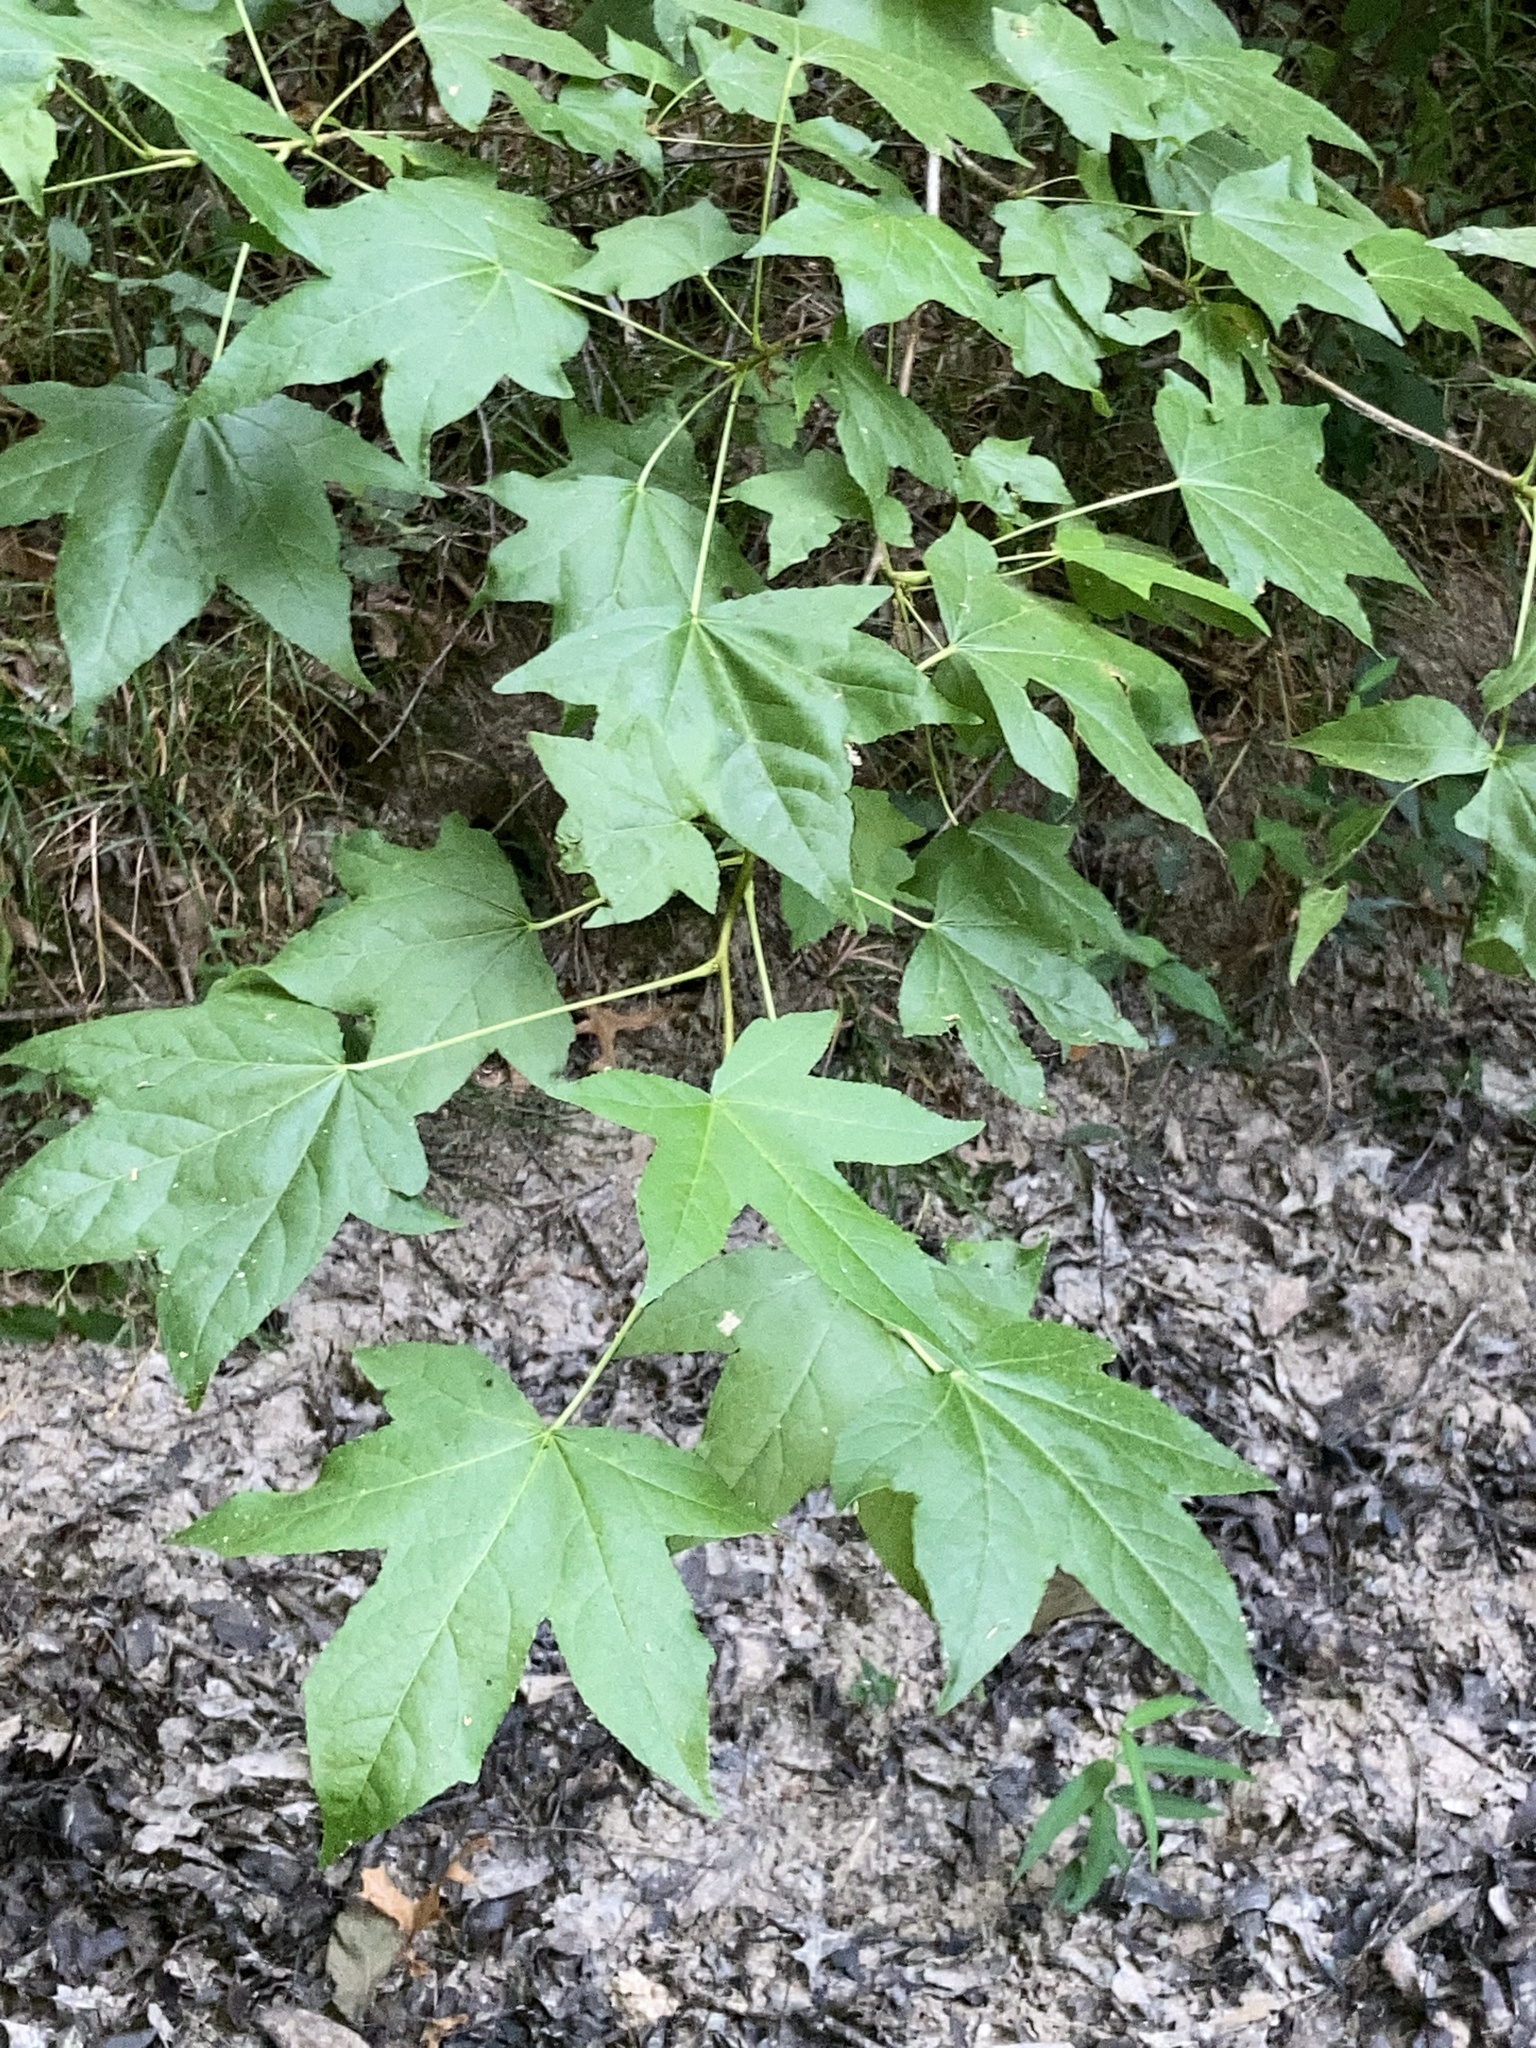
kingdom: Plantae
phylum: Tracheophyta
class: Magnoliopsida
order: Saxifragales
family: Altingiaceae
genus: Liquidambar
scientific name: Liquidambar styraciflua
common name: Sweet gum
